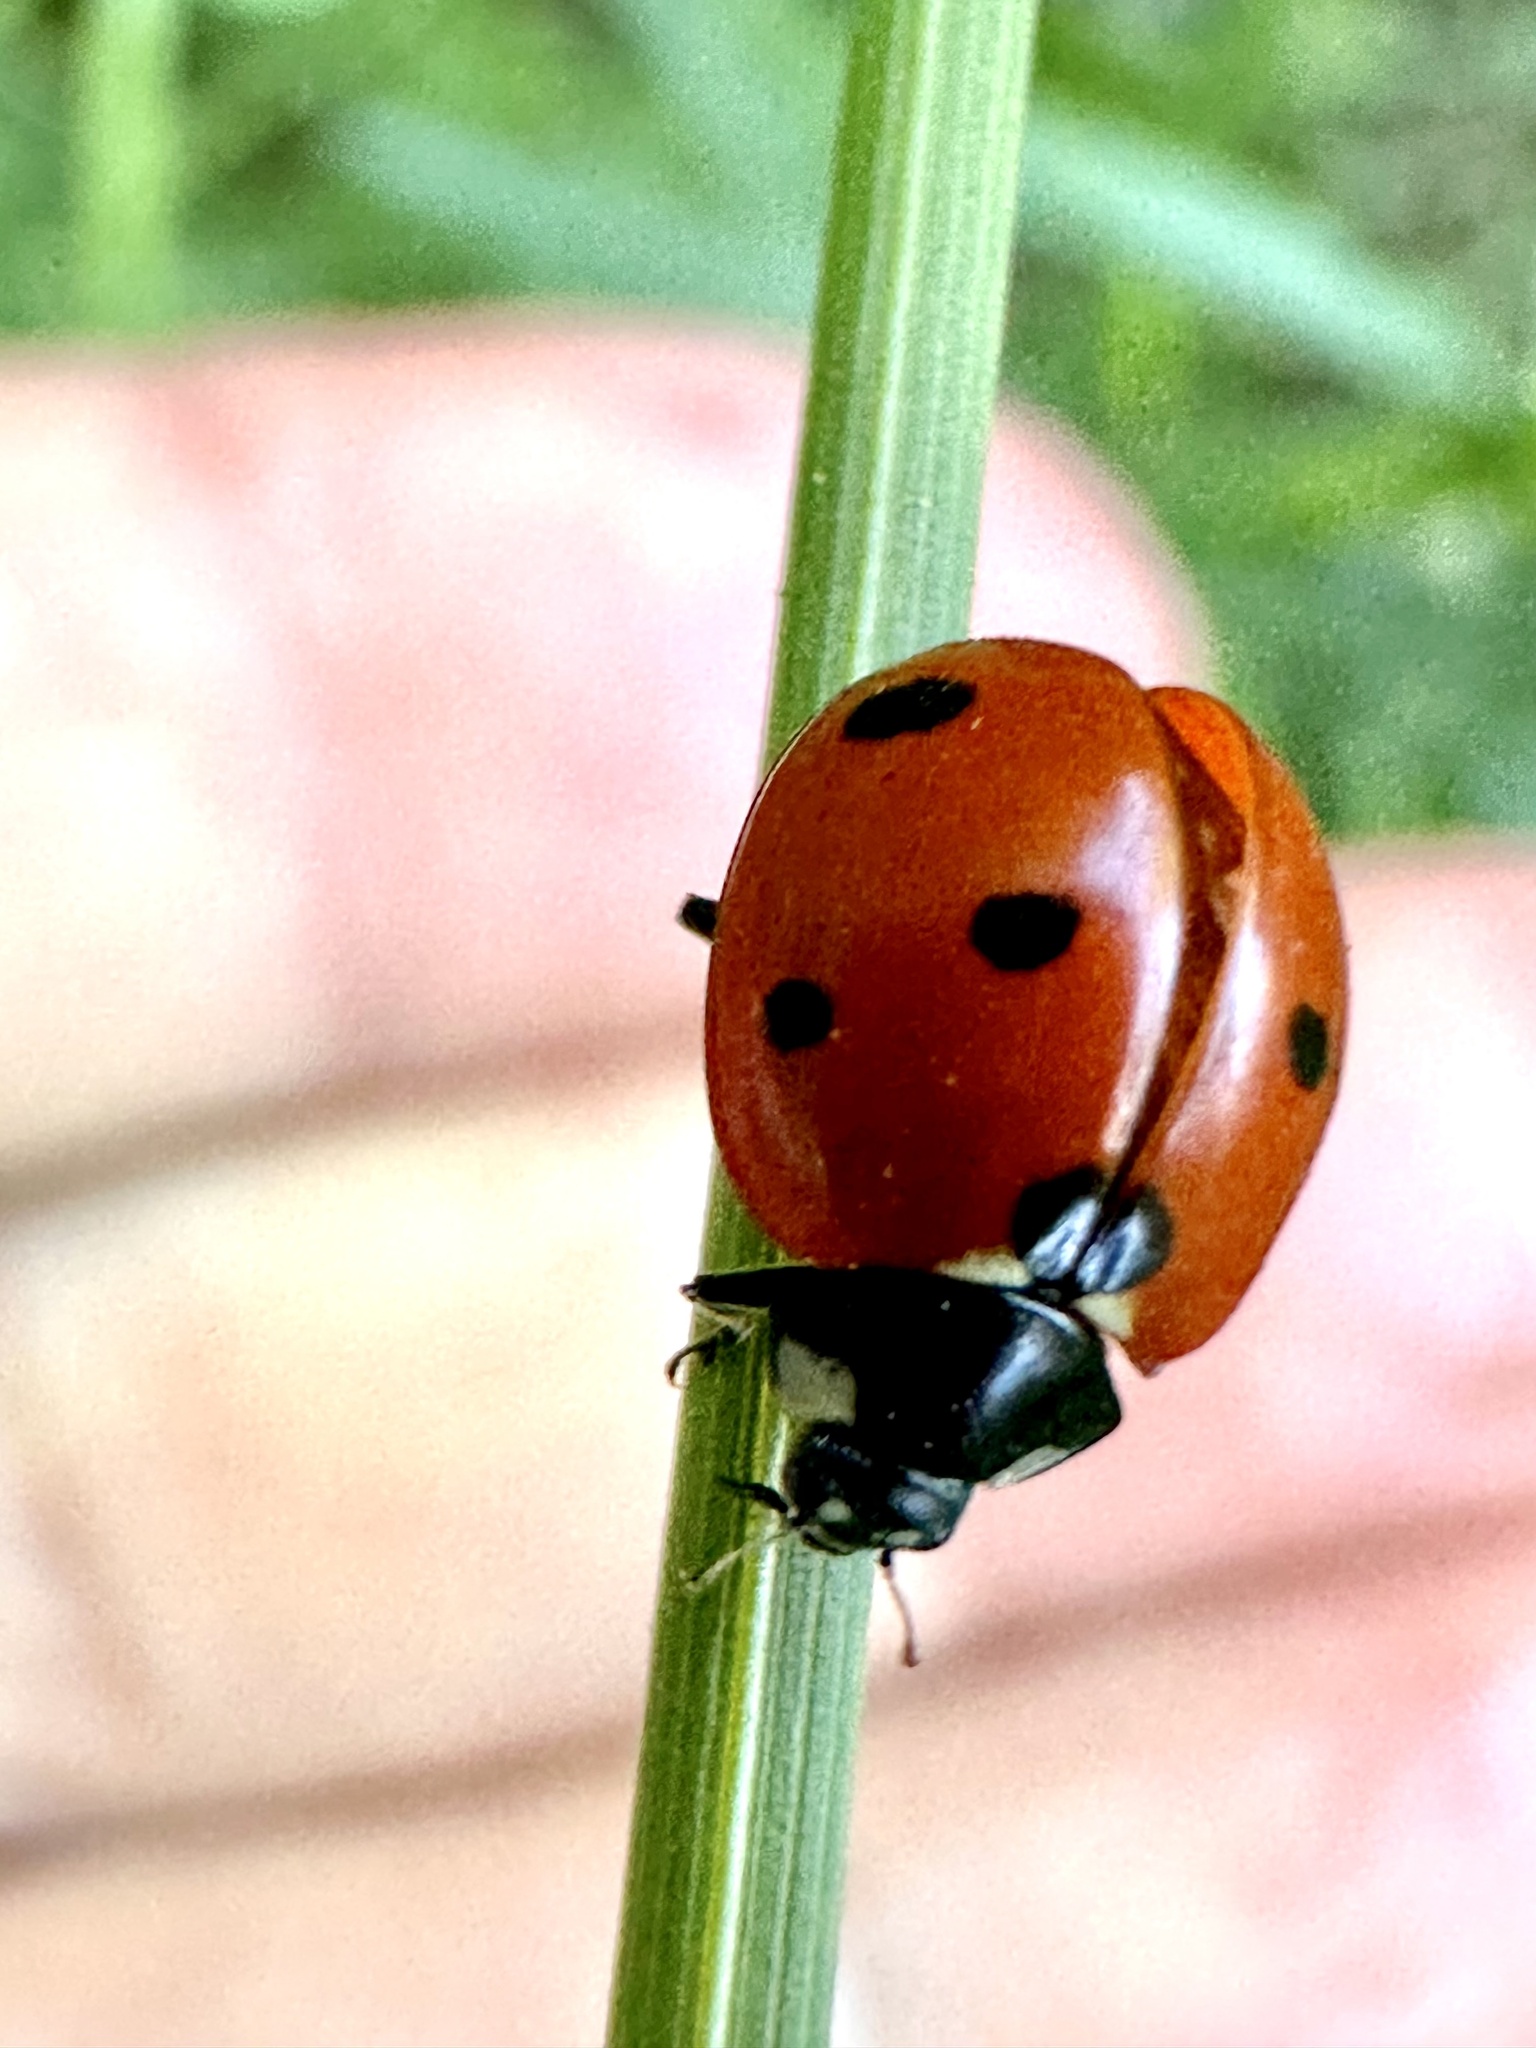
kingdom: Animalia
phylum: Arthropoda
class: Insecta
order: Coleoptera
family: Coccinellidae
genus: Coccinella
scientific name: Coccinella septempunctata
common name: Sevenspotted lady beetle
